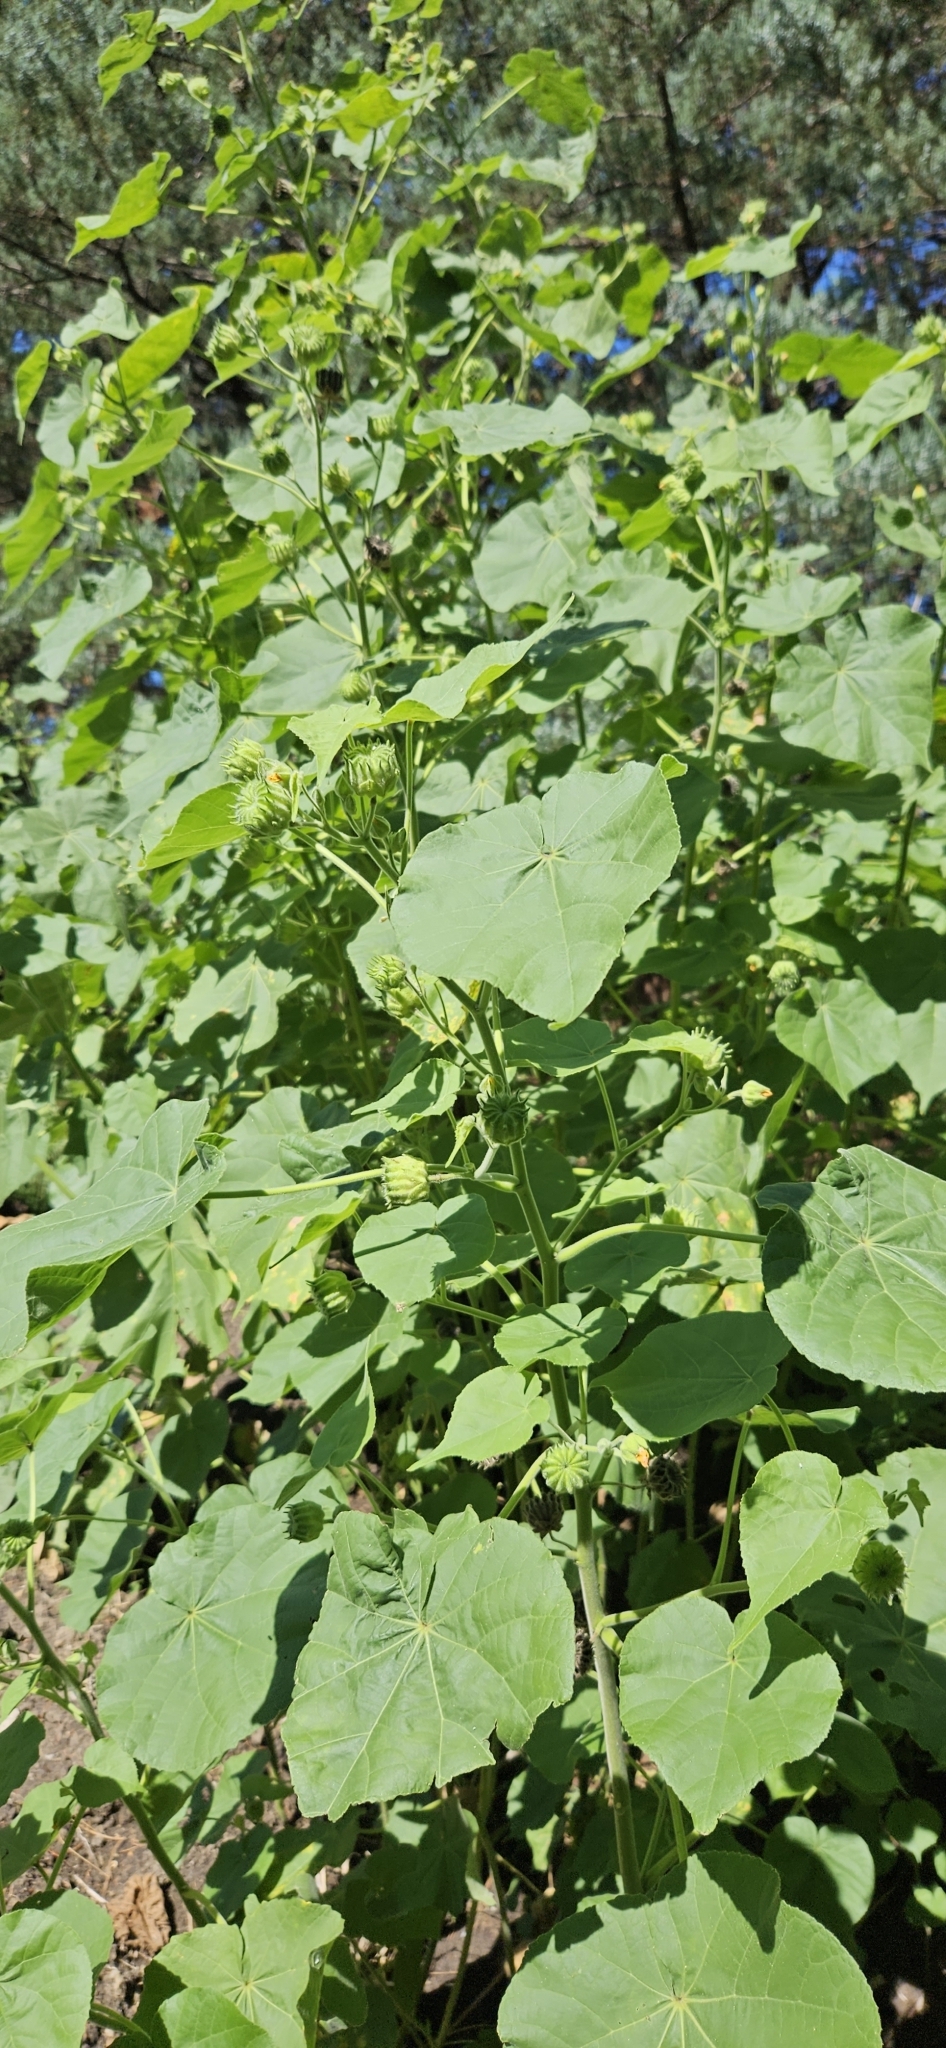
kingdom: Plantae
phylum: Tracheophyta
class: Magnoliopsida
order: Malvales
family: Malvaceae
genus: Abutilon
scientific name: Abutilon theophrasti
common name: Velvetleaf
